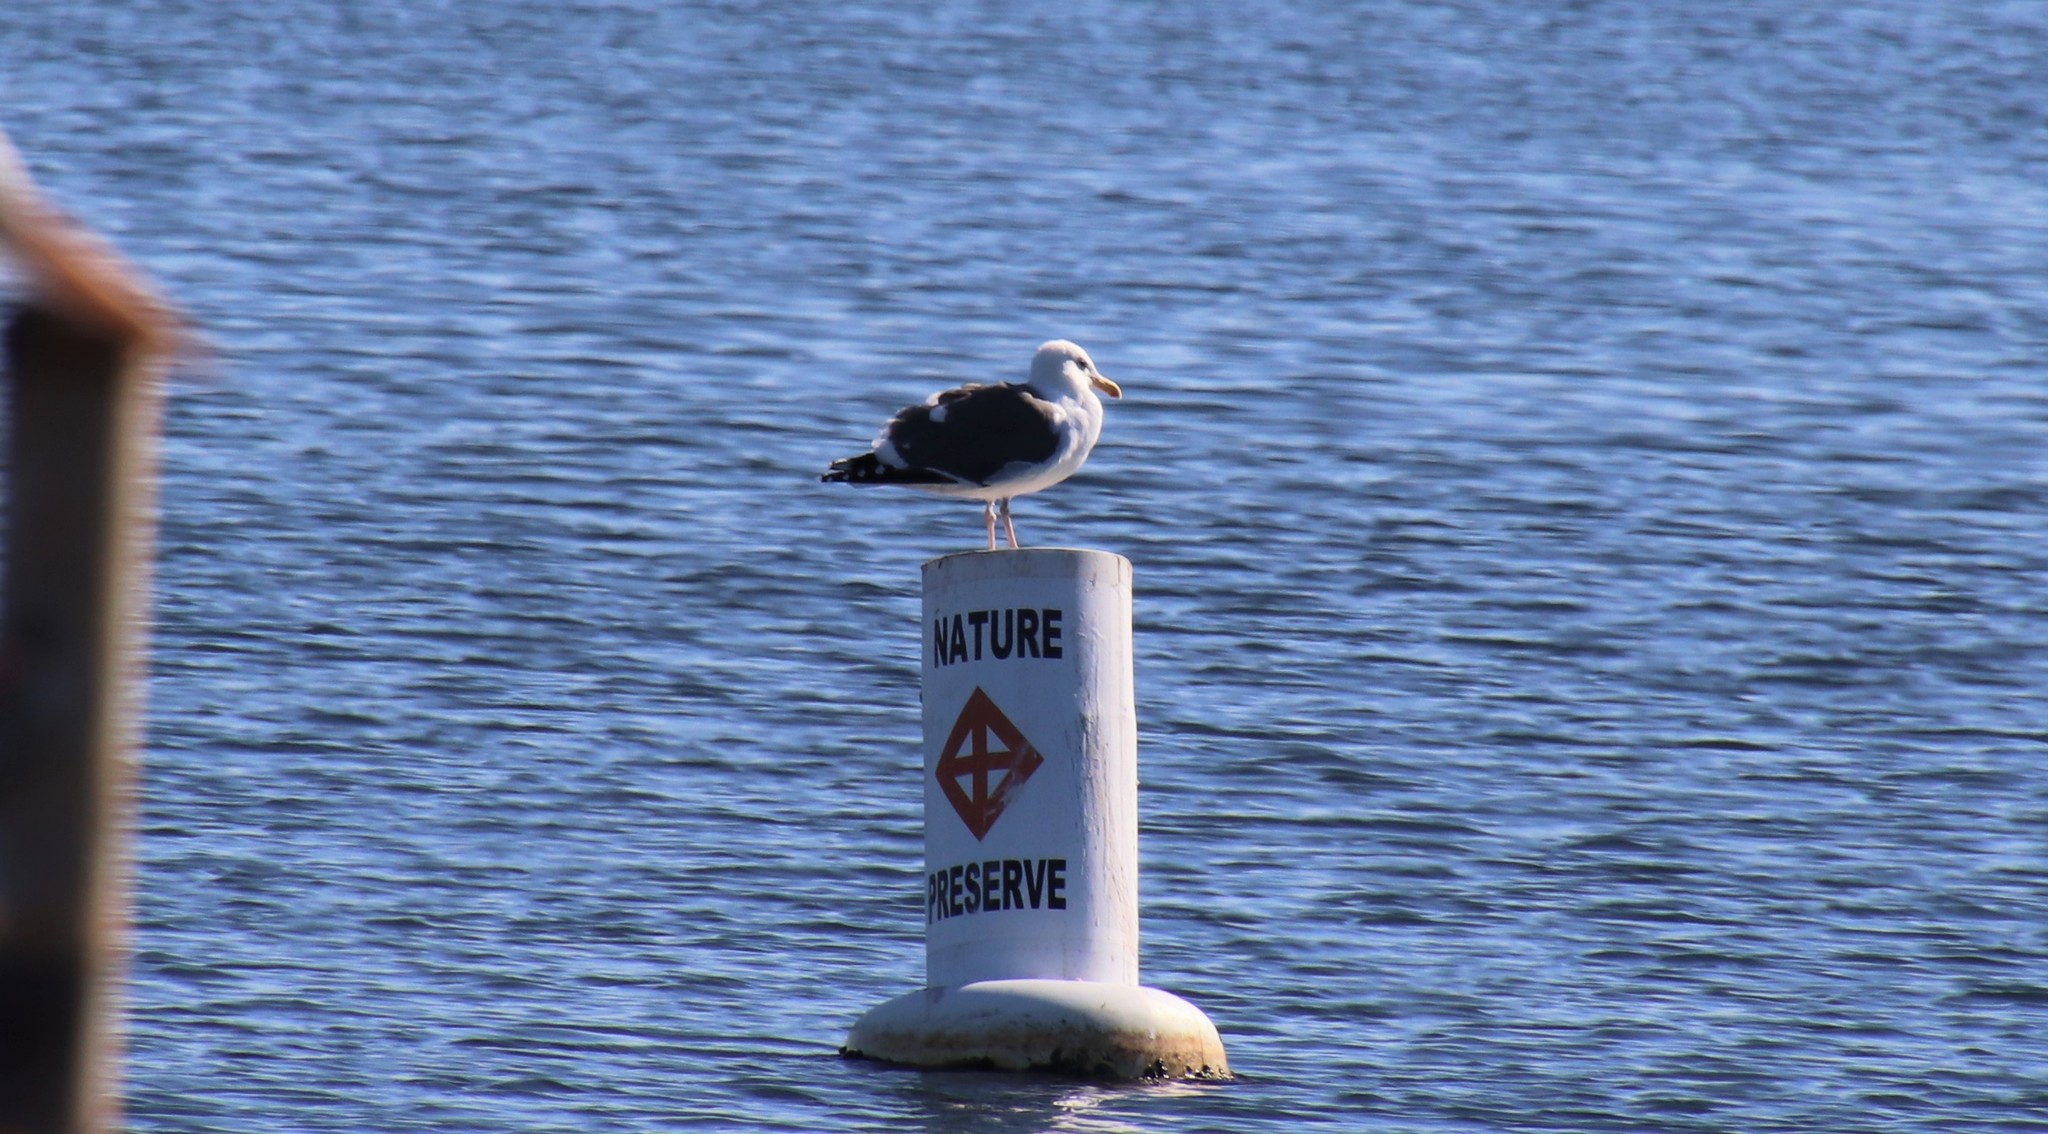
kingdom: Animalia
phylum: Chordata
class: Aves
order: Charadriiformes
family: Laridae
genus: Larus
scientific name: Larus occidentalis
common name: Western gull
